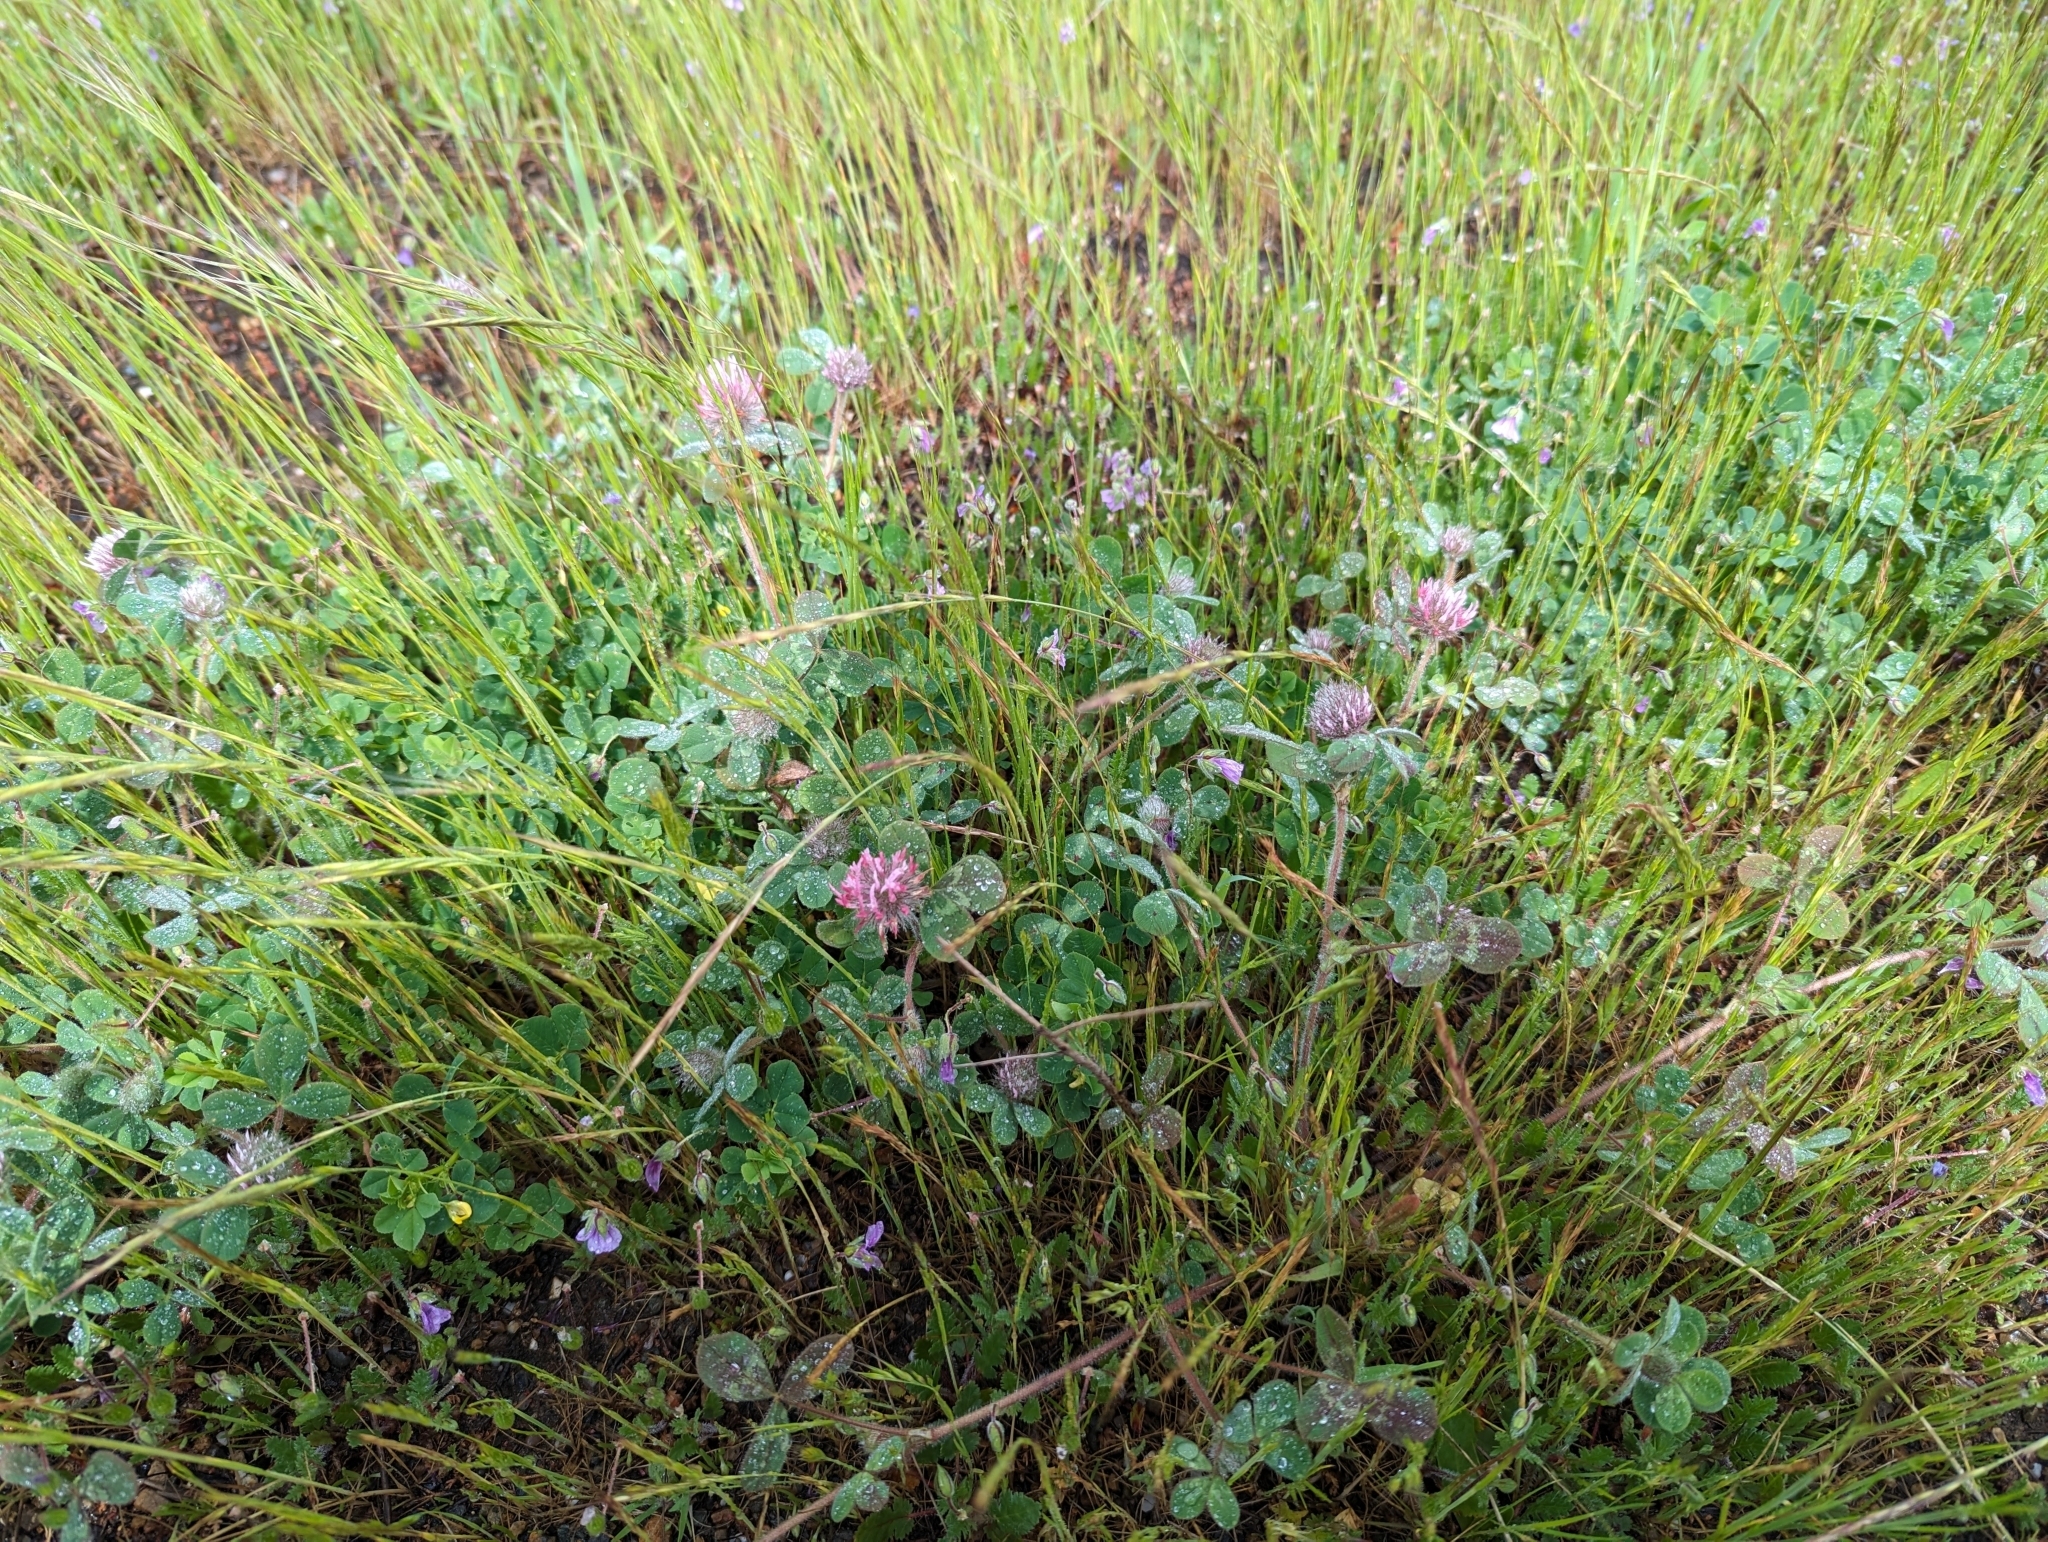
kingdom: Plantae
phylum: Tracheophyta
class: Magnoliopsida
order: Fabales
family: Fabaceae
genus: Trifolium
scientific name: Trifolium hirtum
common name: Rose clover
